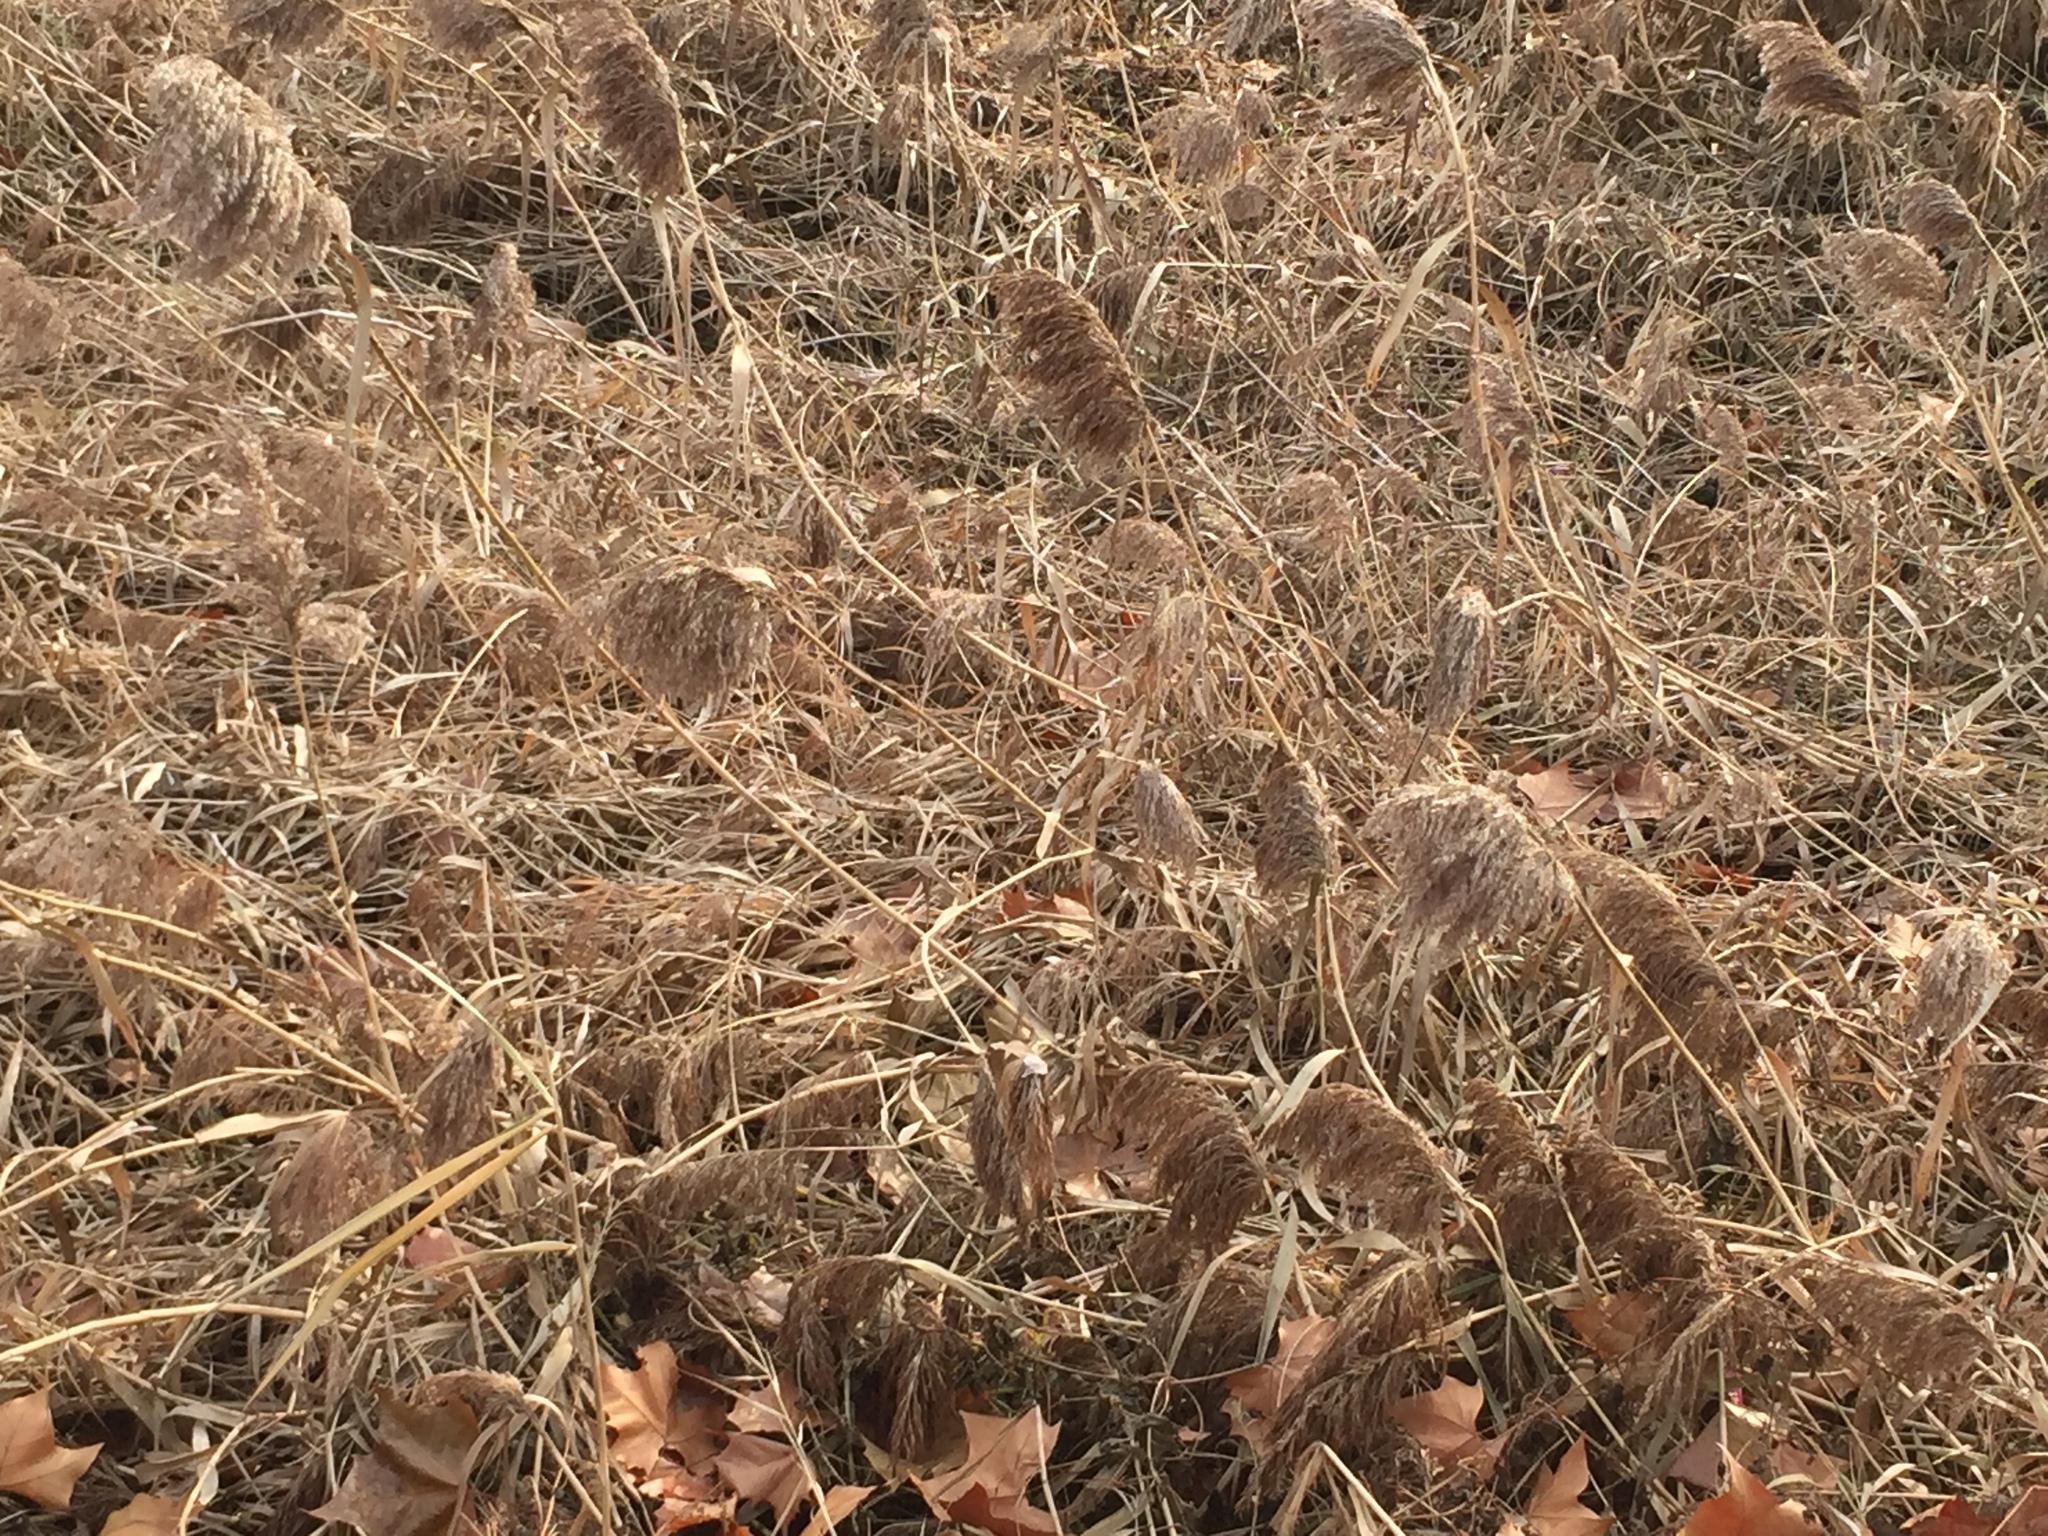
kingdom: Plantae
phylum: Tracheophyta
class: Liliopsida
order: Poales
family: Poaceae
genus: Phragmites
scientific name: Phragmites australis
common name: Common reed
